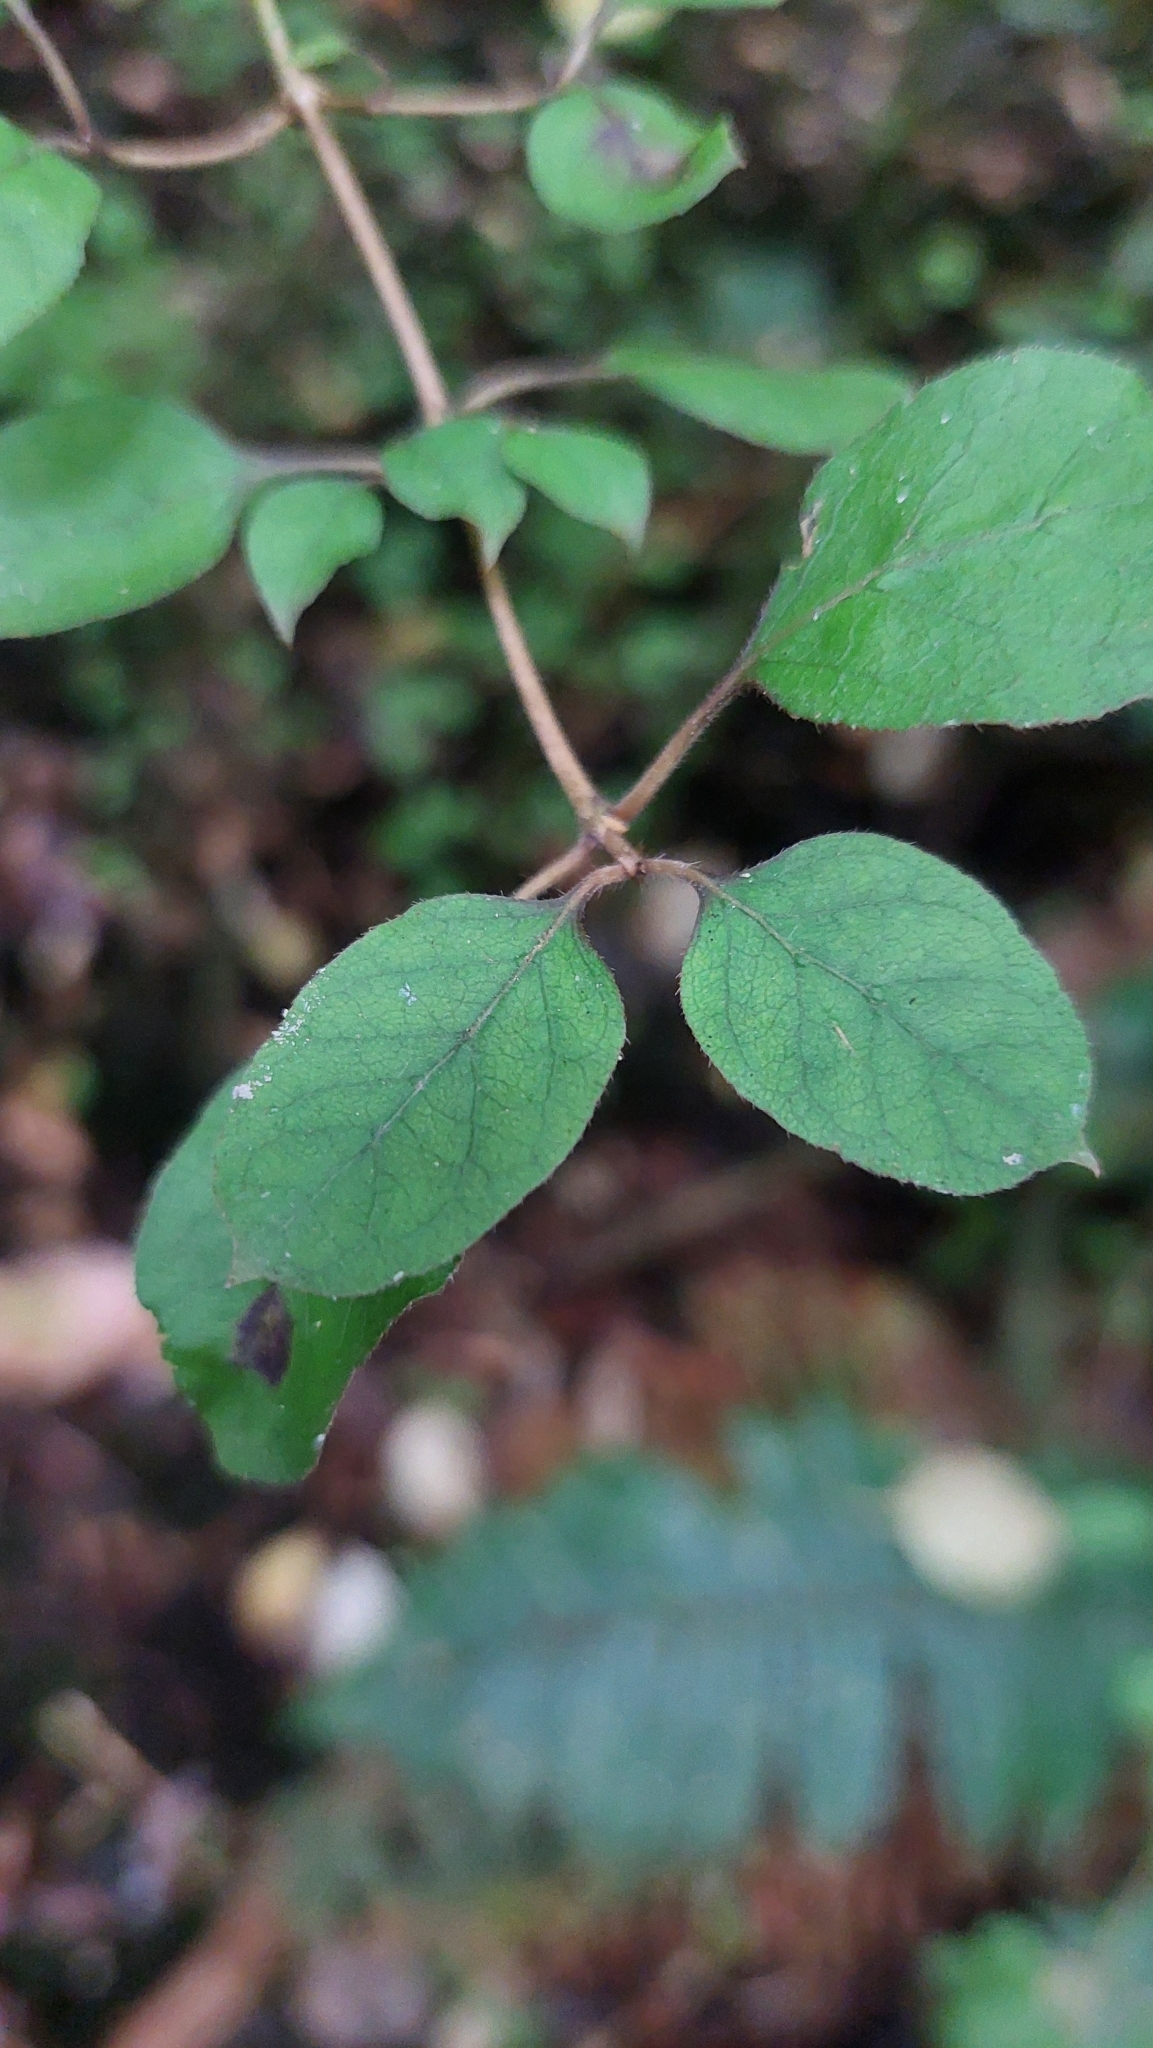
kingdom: Plantae
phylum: Tracheophyta
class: Magnoliopsida
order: Gentianales
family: Rubiaceae
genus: Coprosma
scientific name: Coprosma rotundifolia
